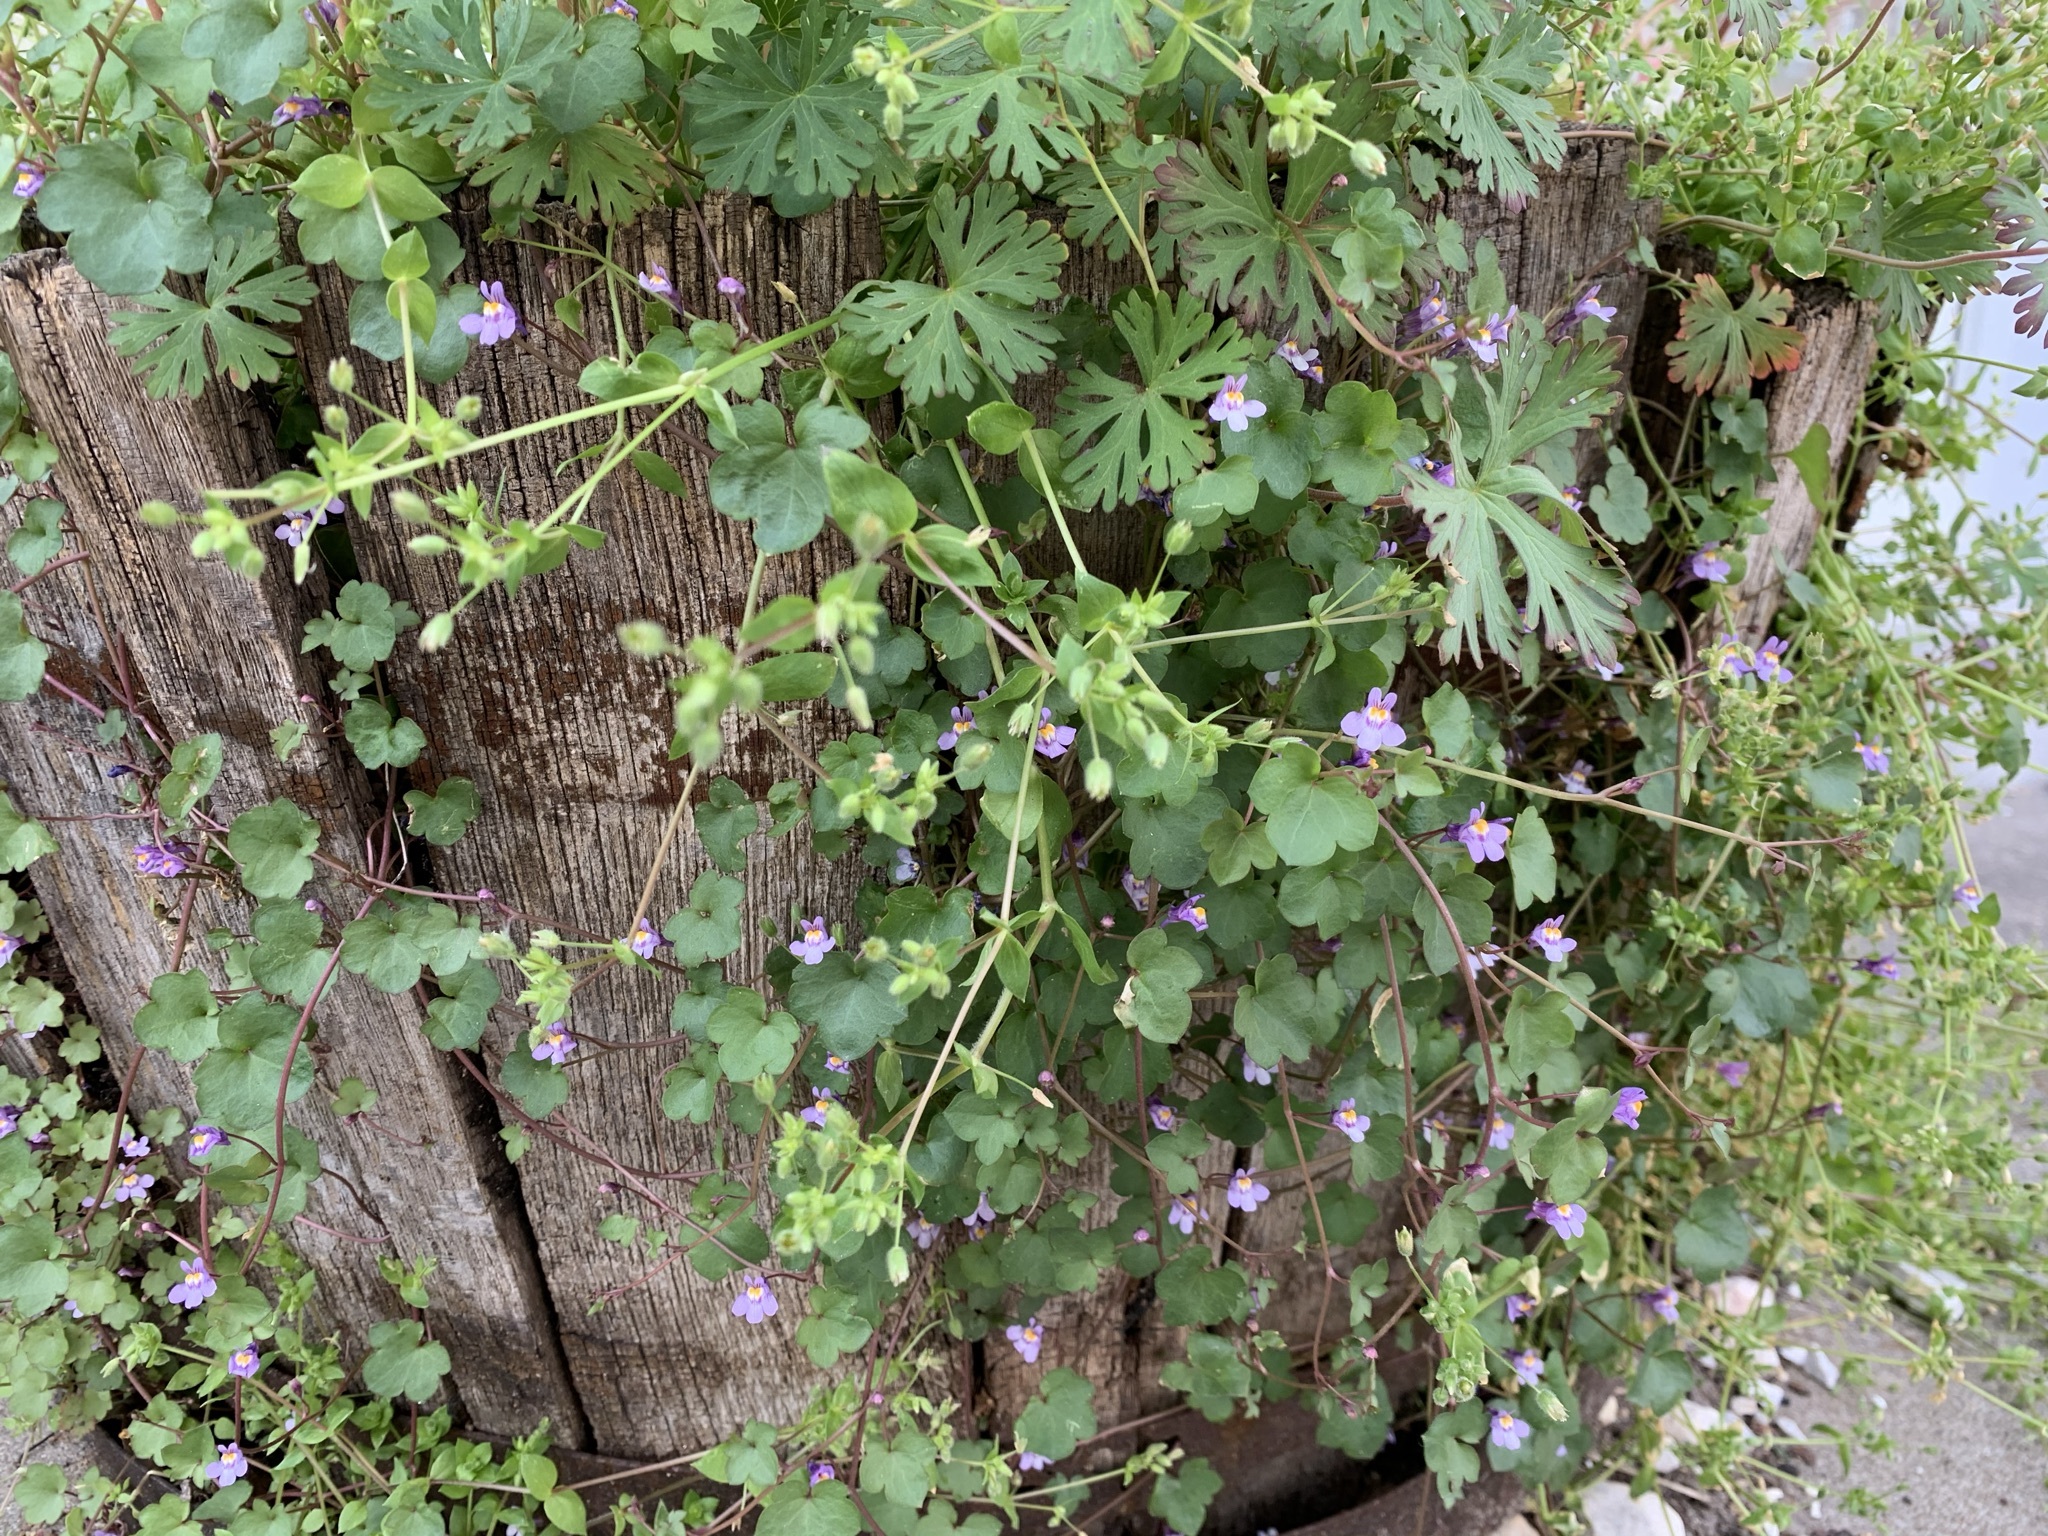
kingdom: Plantae
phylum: Tracheophyta
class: Magnoliopsida
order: Lamiales
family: Plantaginaceae
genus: Cymbalaria
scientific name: Cymbalaria muralis
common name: Ivy-leaved toadflax
